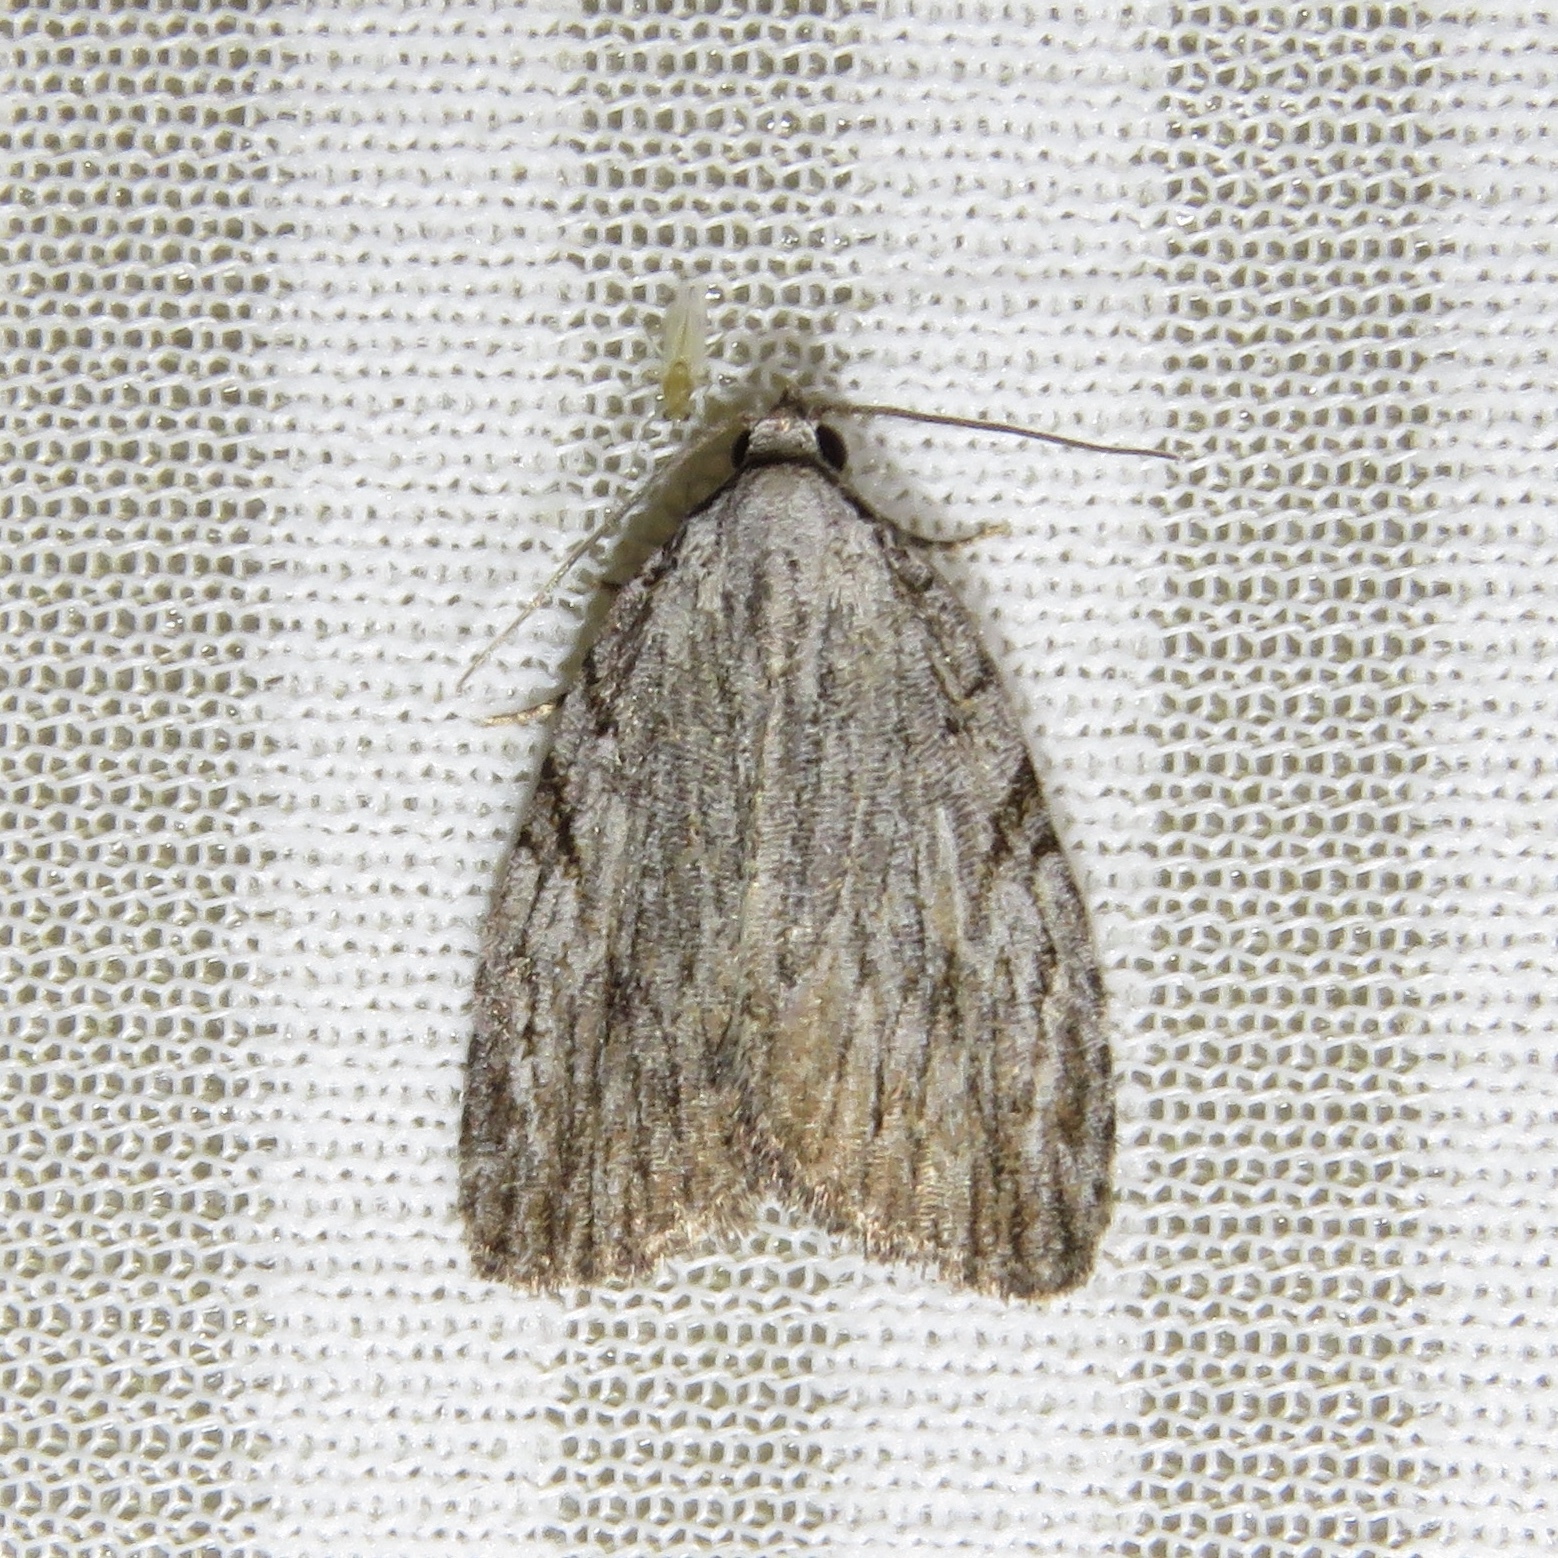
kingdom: Animalia
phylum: Arthropoda
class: Insecta
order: Lepidoptera
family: Noctuidae
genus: Balsa
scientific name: Balsa tristrigella
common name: Three-lined balsa moth
